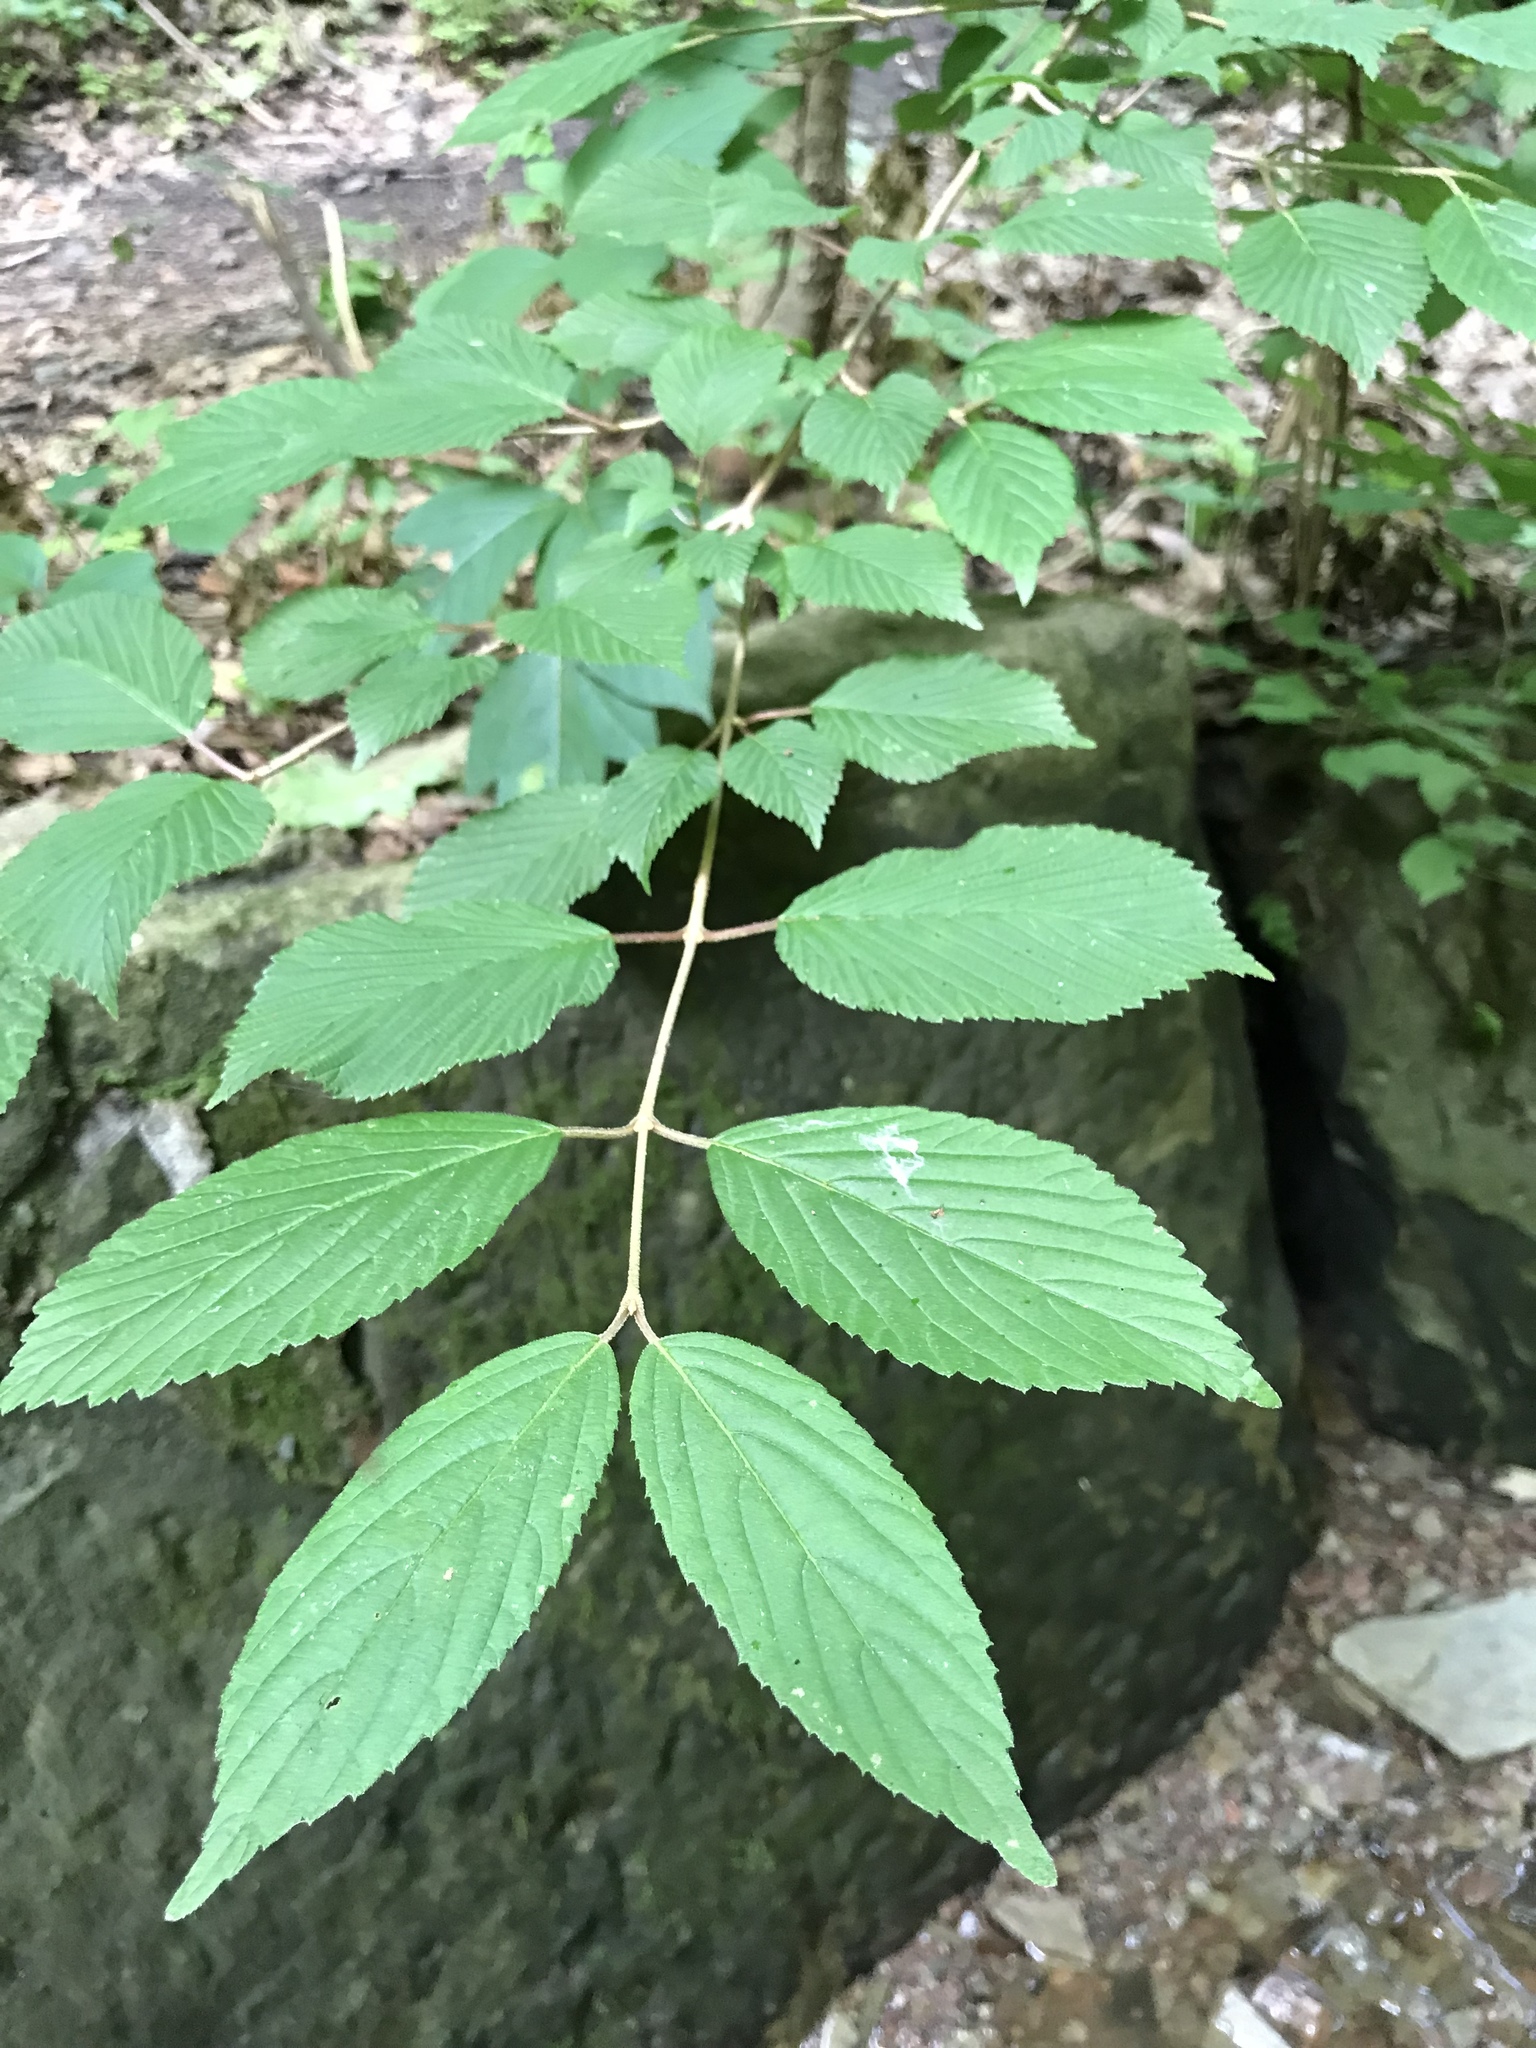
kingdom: Plantae
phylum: Tracheophyta
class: Magnoliopsida
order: Dipsacales
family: Viburnaceae
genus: Viburnum
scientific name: Viburnum plicatum
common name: Japanese snowball
